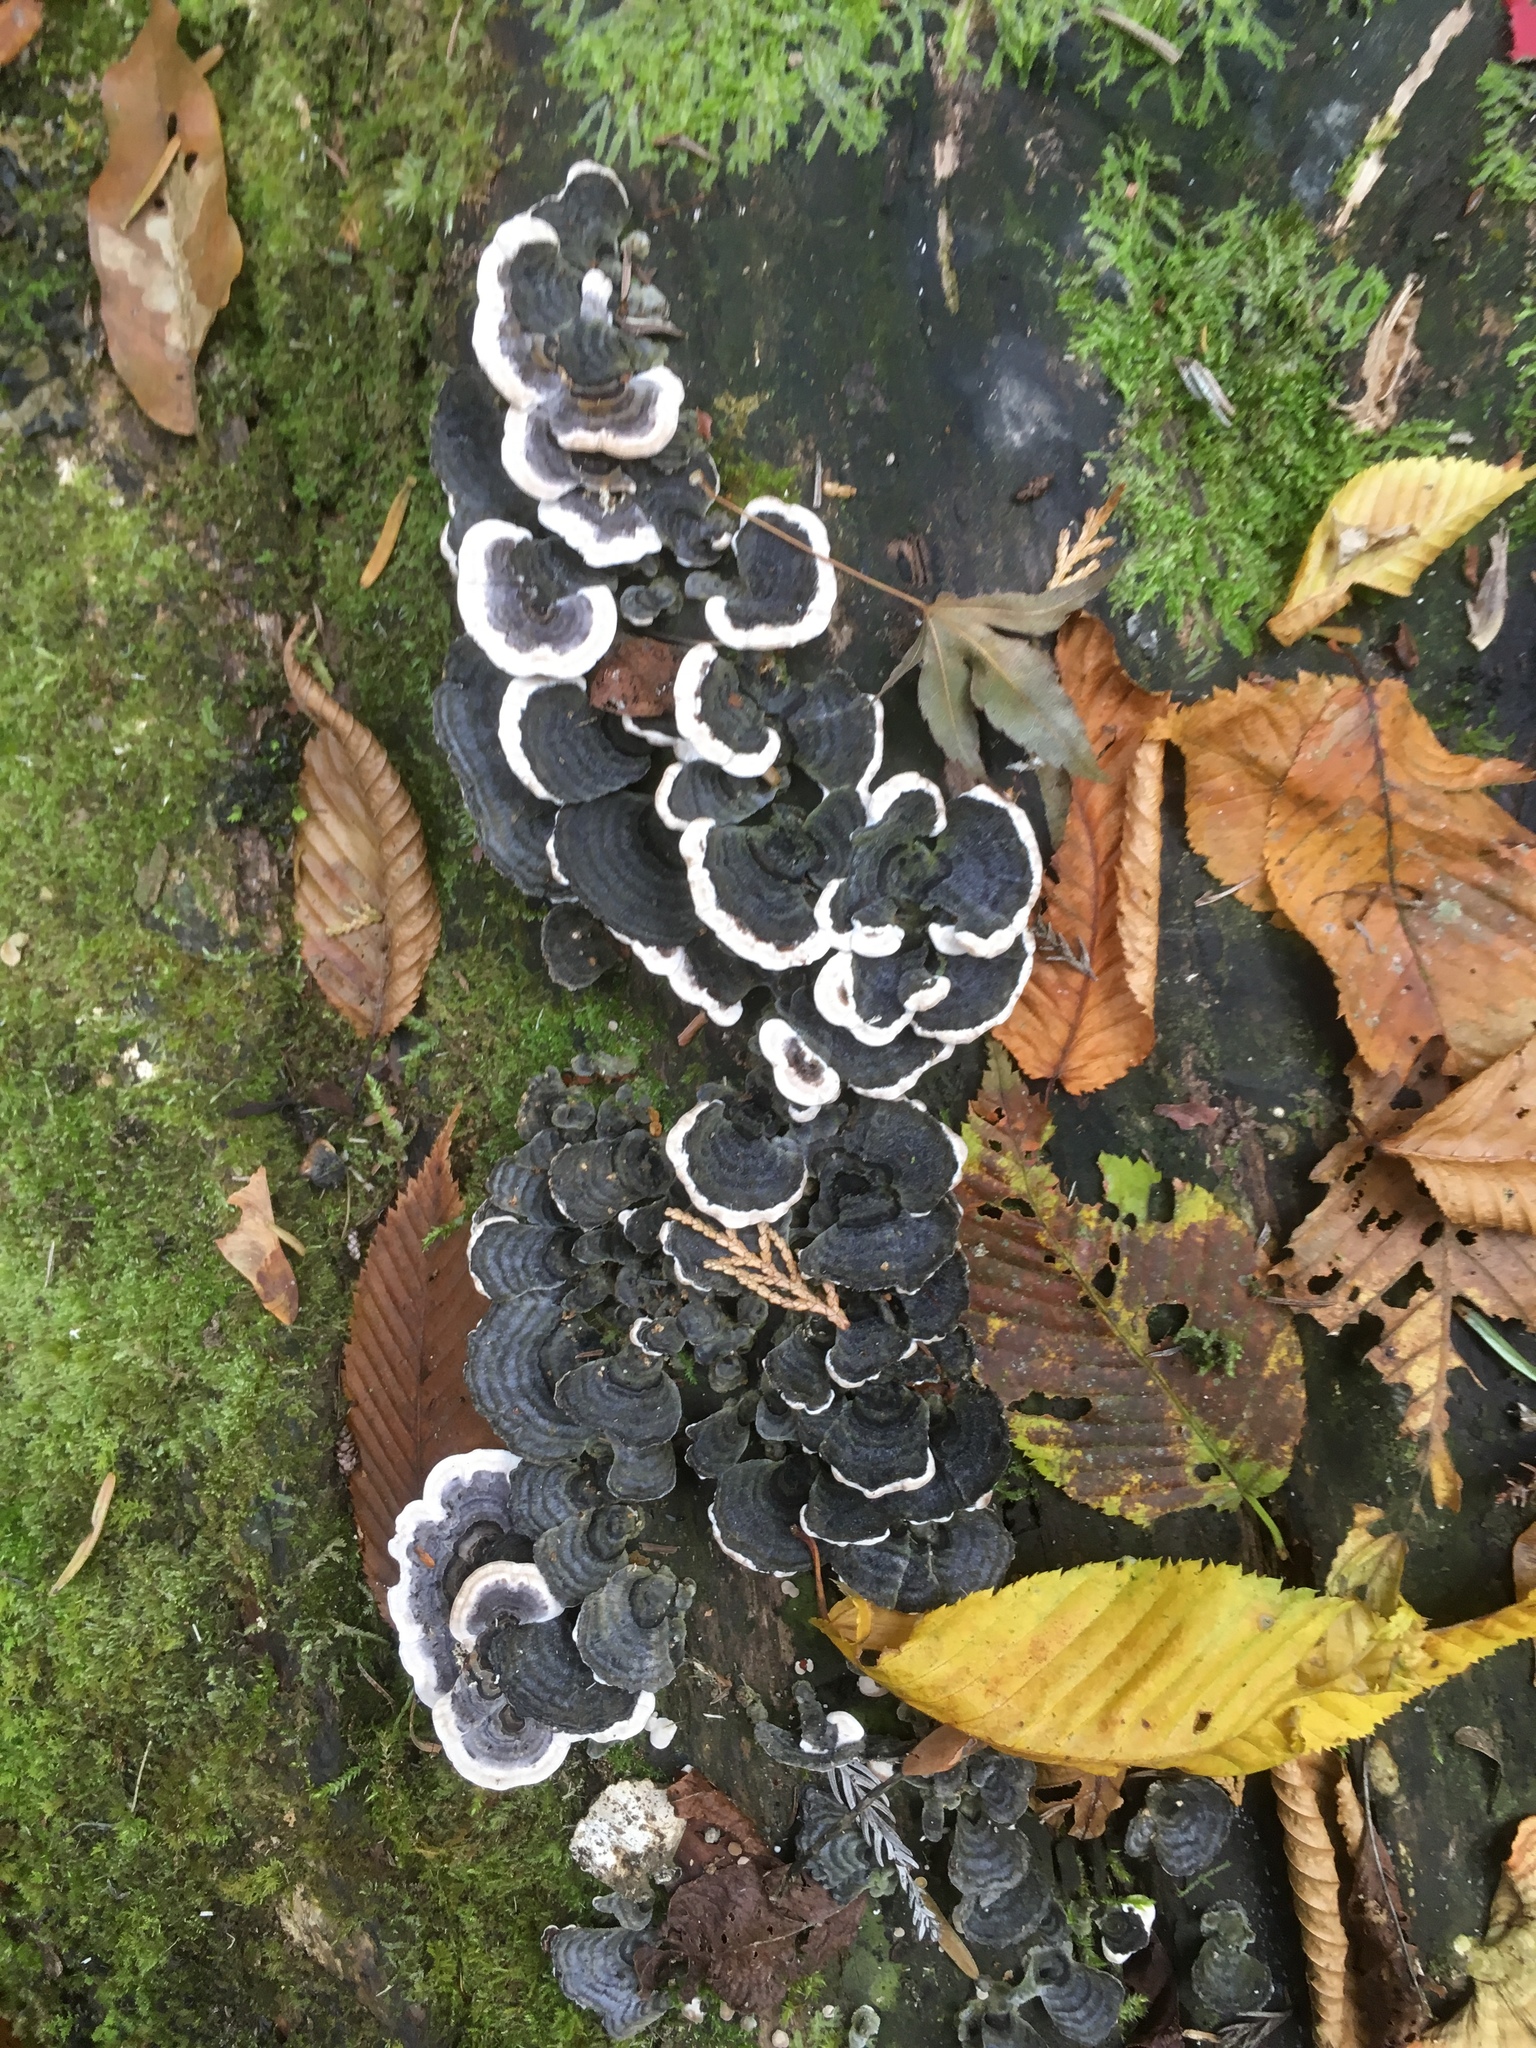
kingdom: Fungi
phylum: Basidiomycota
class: Agaricomycetes
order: Polyporales
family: Polyporaceae
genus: Trametes
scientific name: Trametes versicolor
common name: Turkeytail
